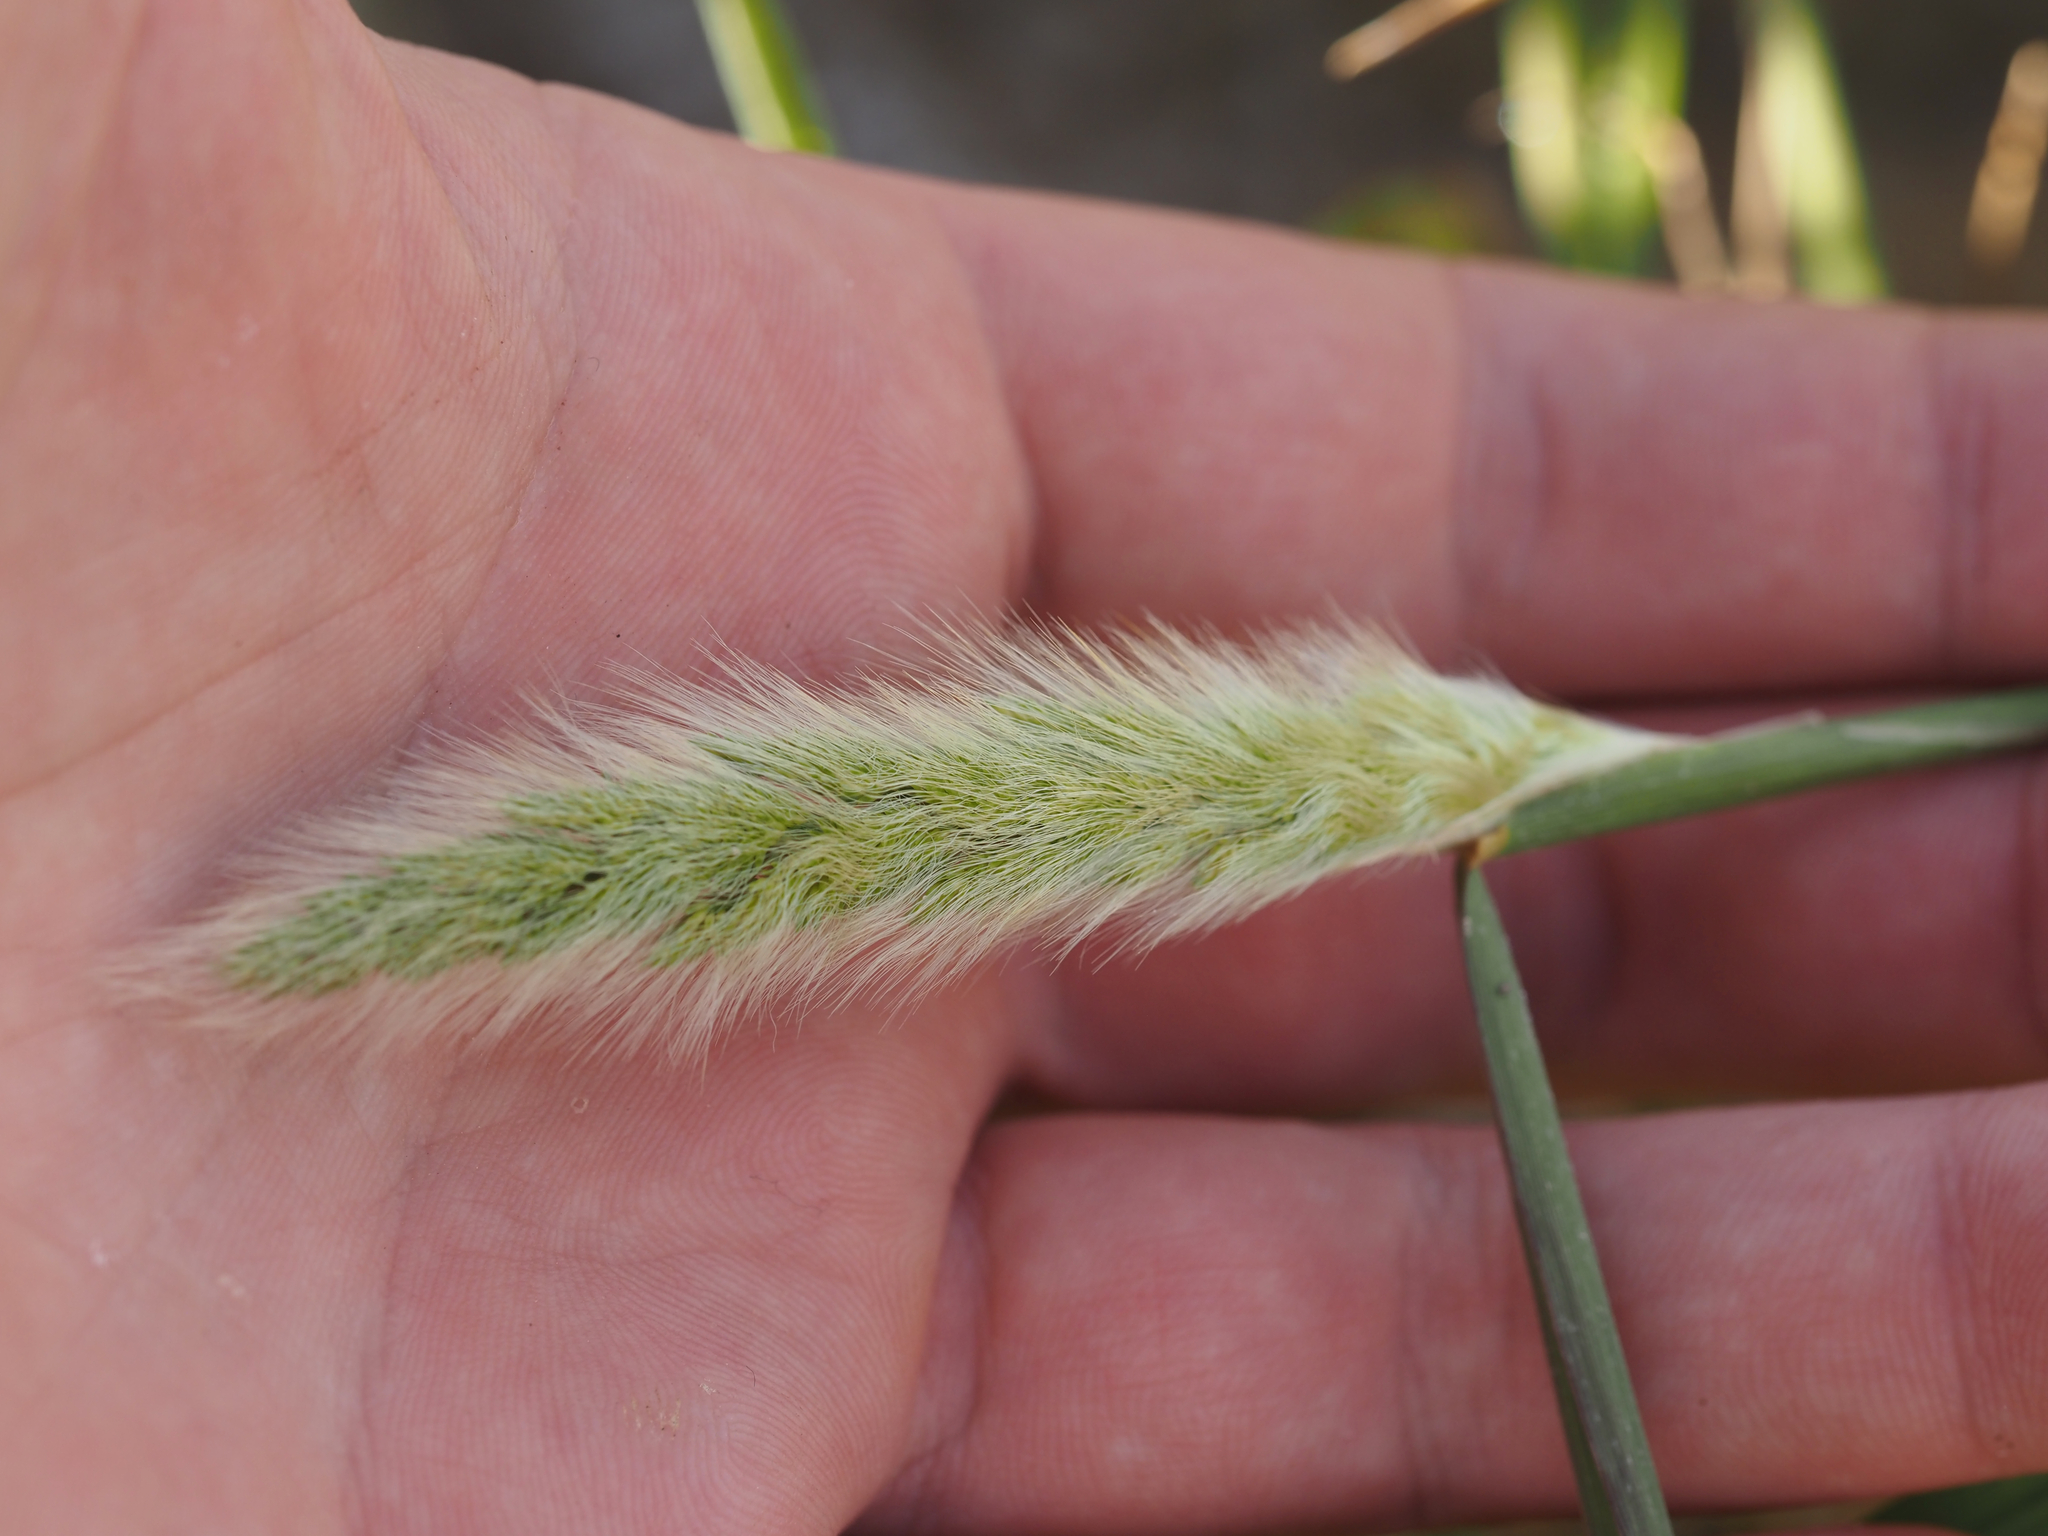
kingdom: Plantae
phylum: Tracheophyta
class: Liliopsida
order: Poales
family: Poaceae
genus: Polypogon
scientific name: Polypogon monspeliensis
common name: Annual rabbitsfoot grass
